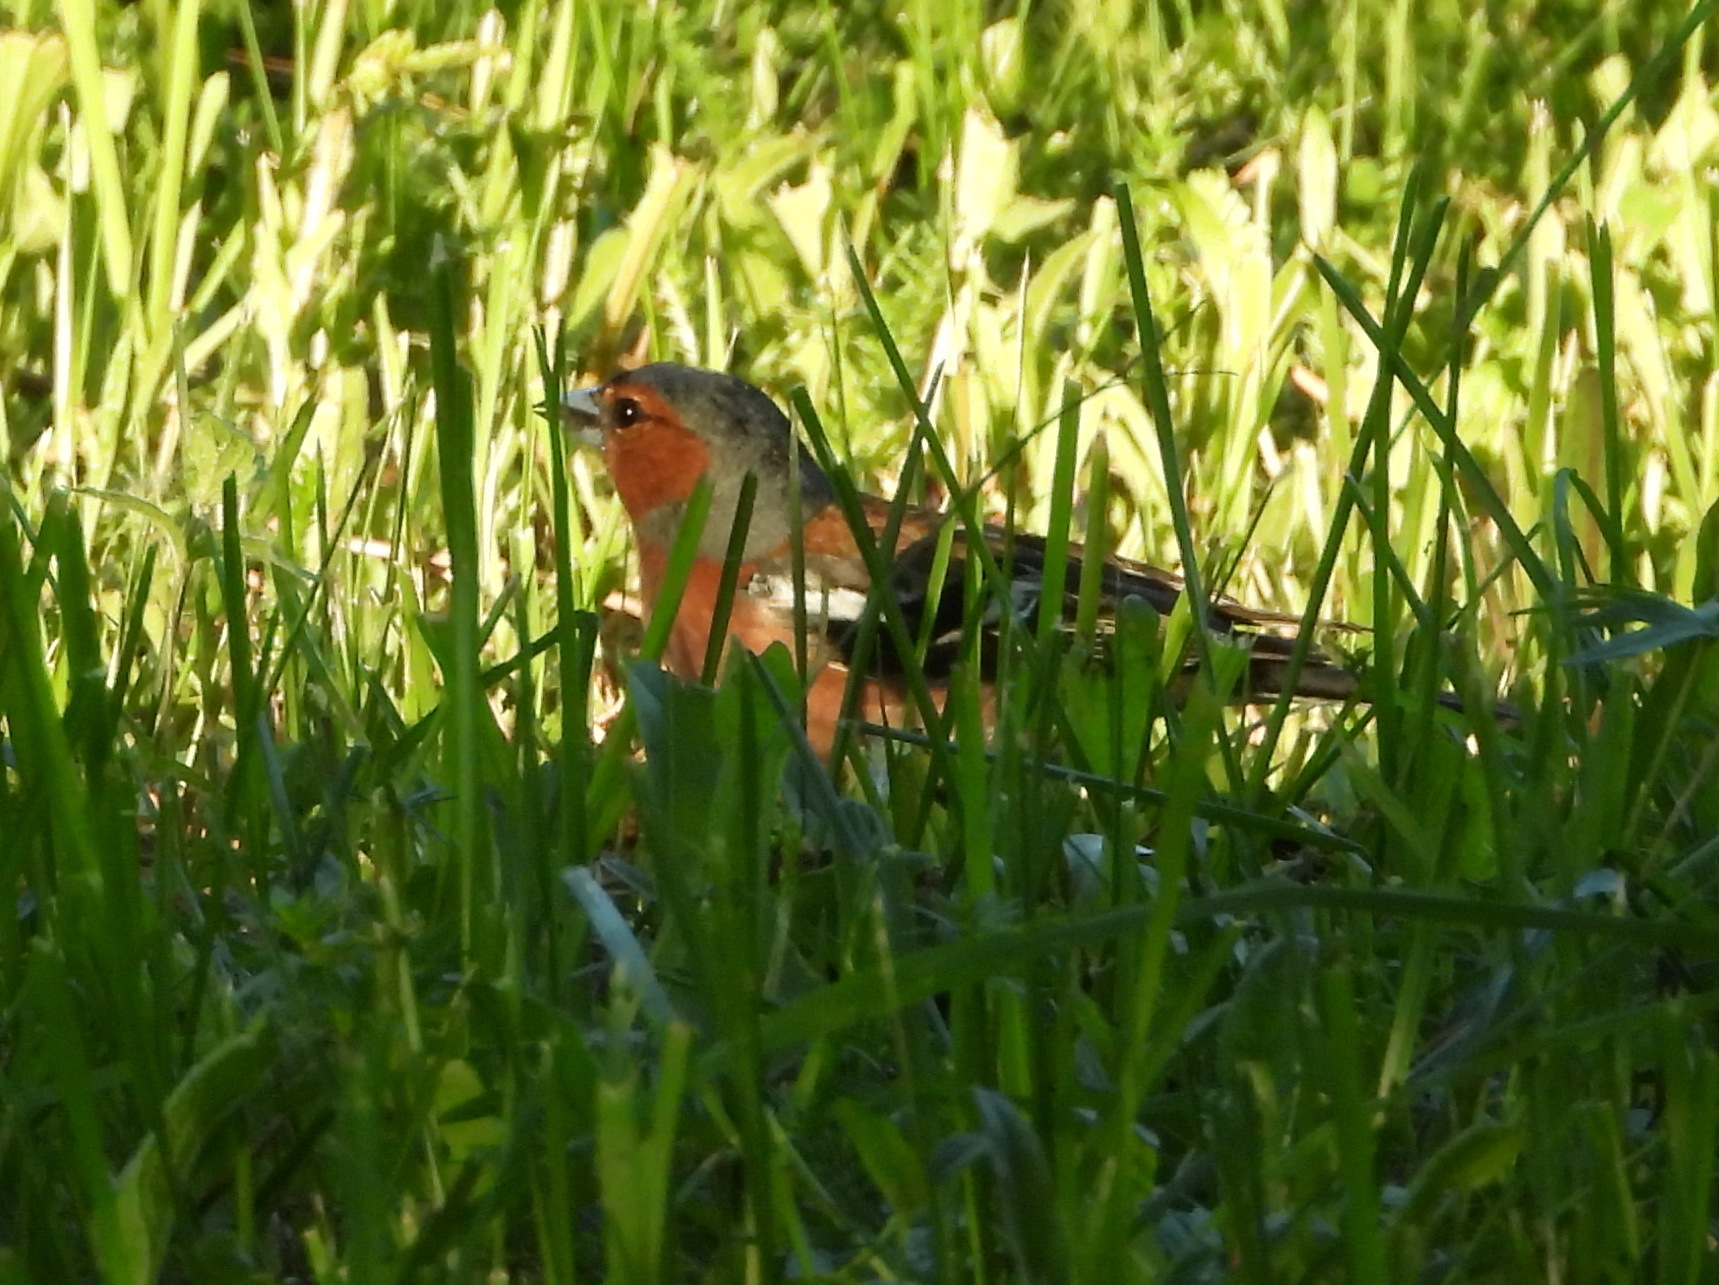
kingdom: Animalia
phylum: Chordata
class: Aves
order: Passeriformes
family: Fringillidae
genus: Fringilla
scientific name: Fringilla coelebs
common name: Common chaffinch
